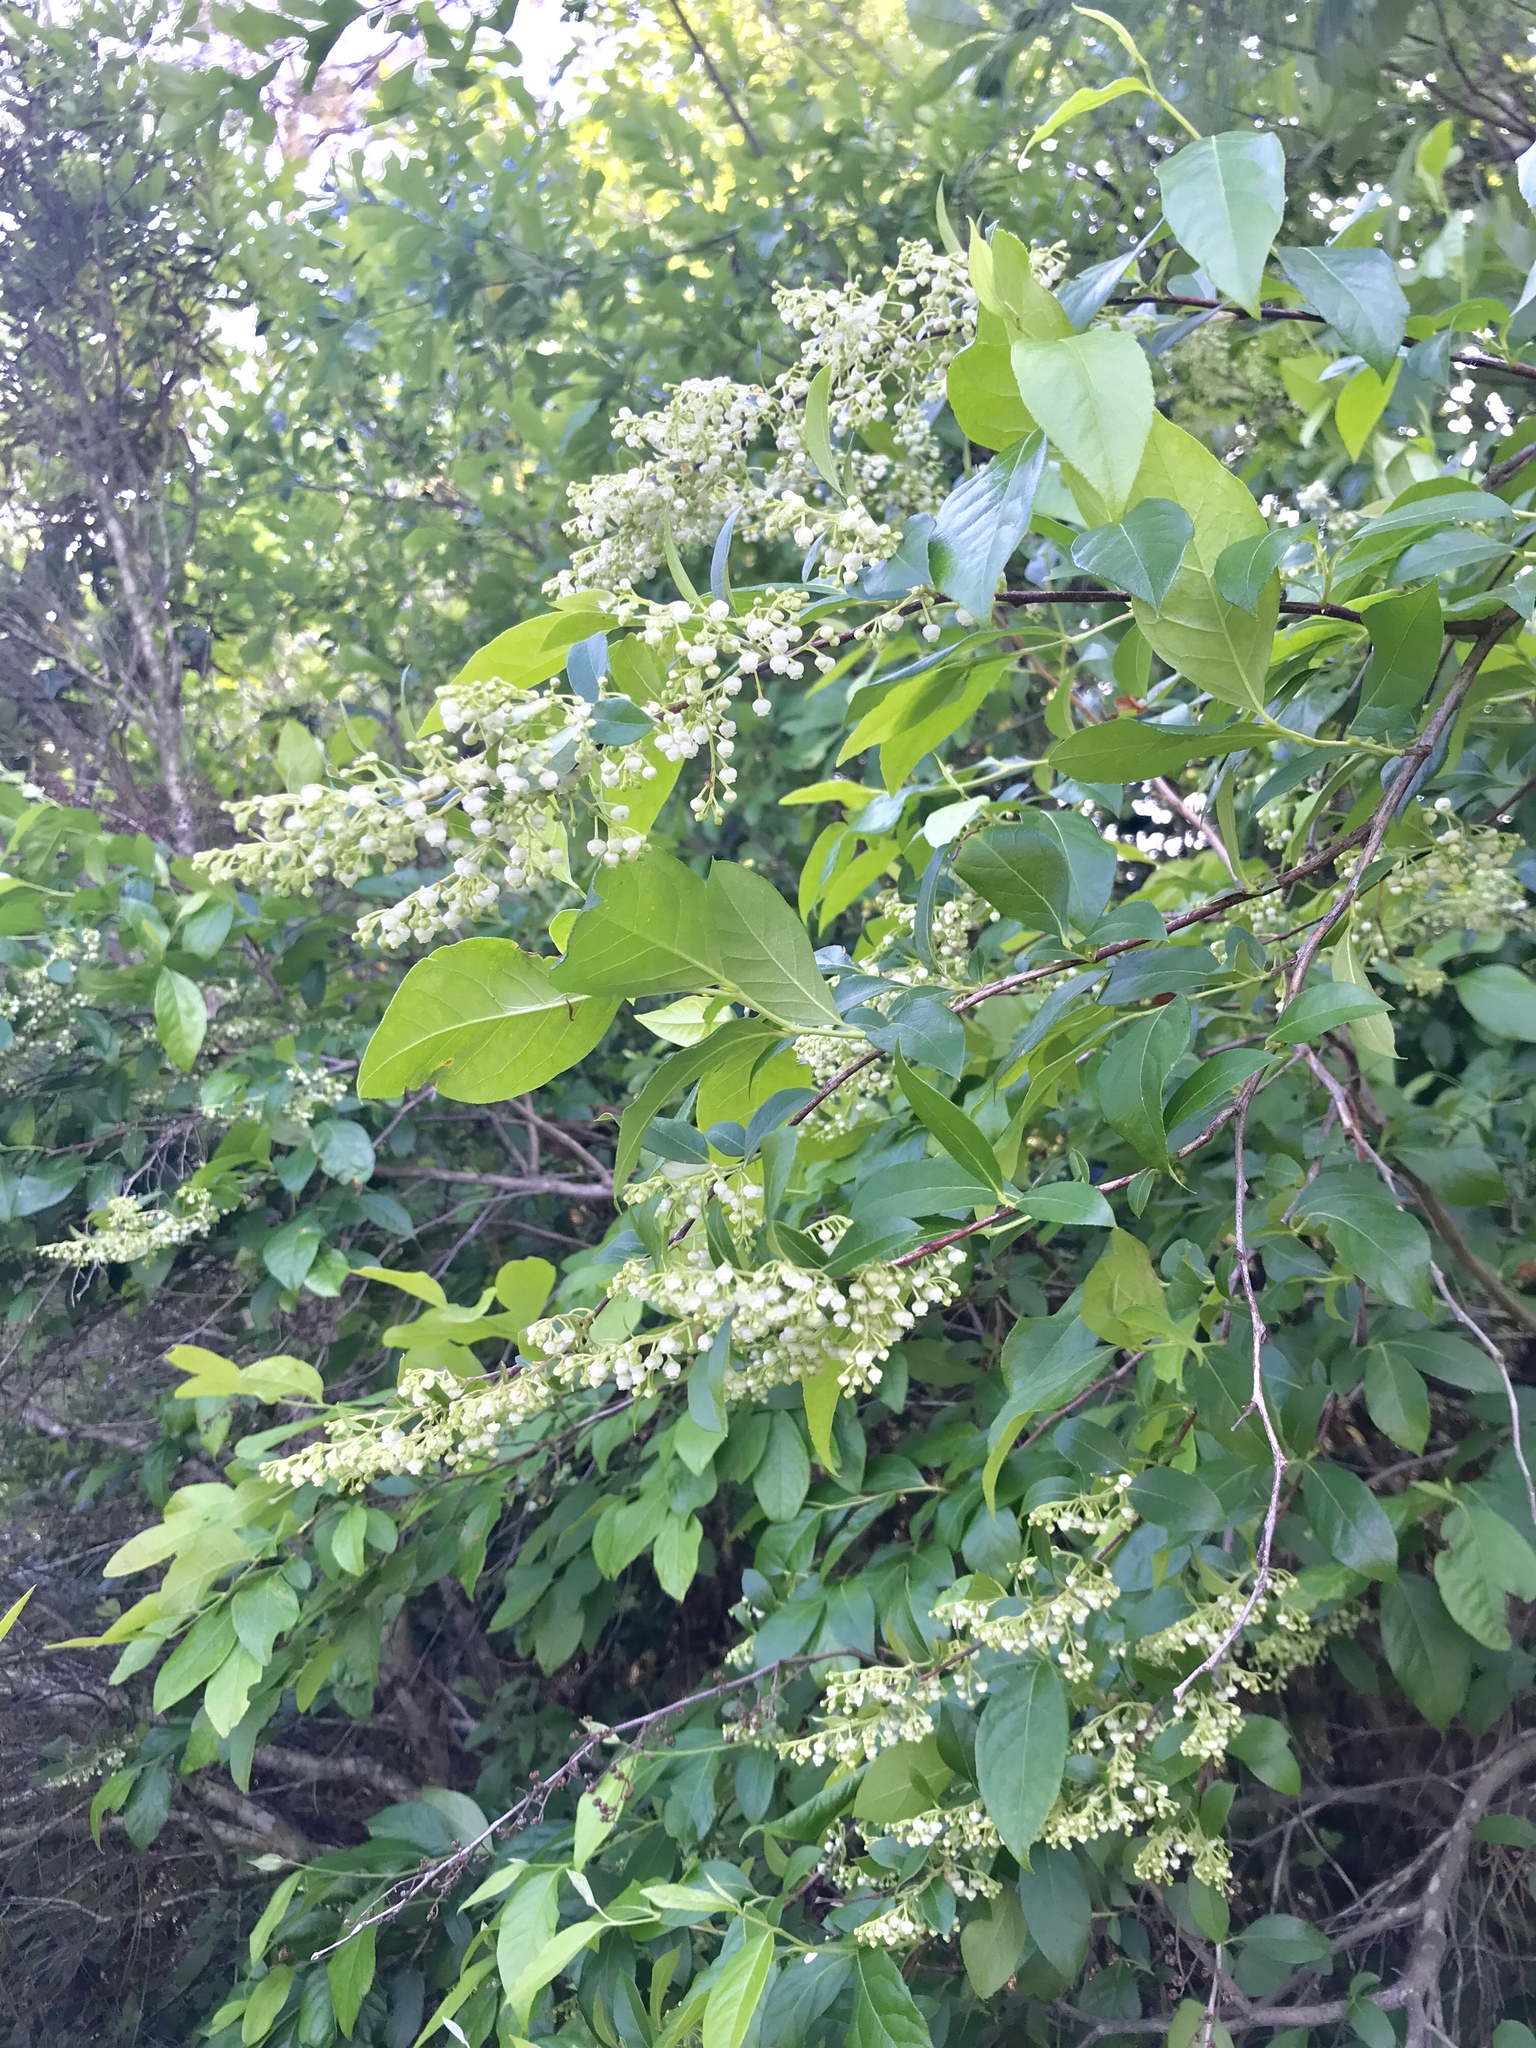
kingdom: Plantae
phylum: Tracheophyta
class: Magnoliopsida
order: Ericales
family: Ericaceae
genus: Lyonia
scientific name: Lyonia ligustrina
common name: Maleberry
